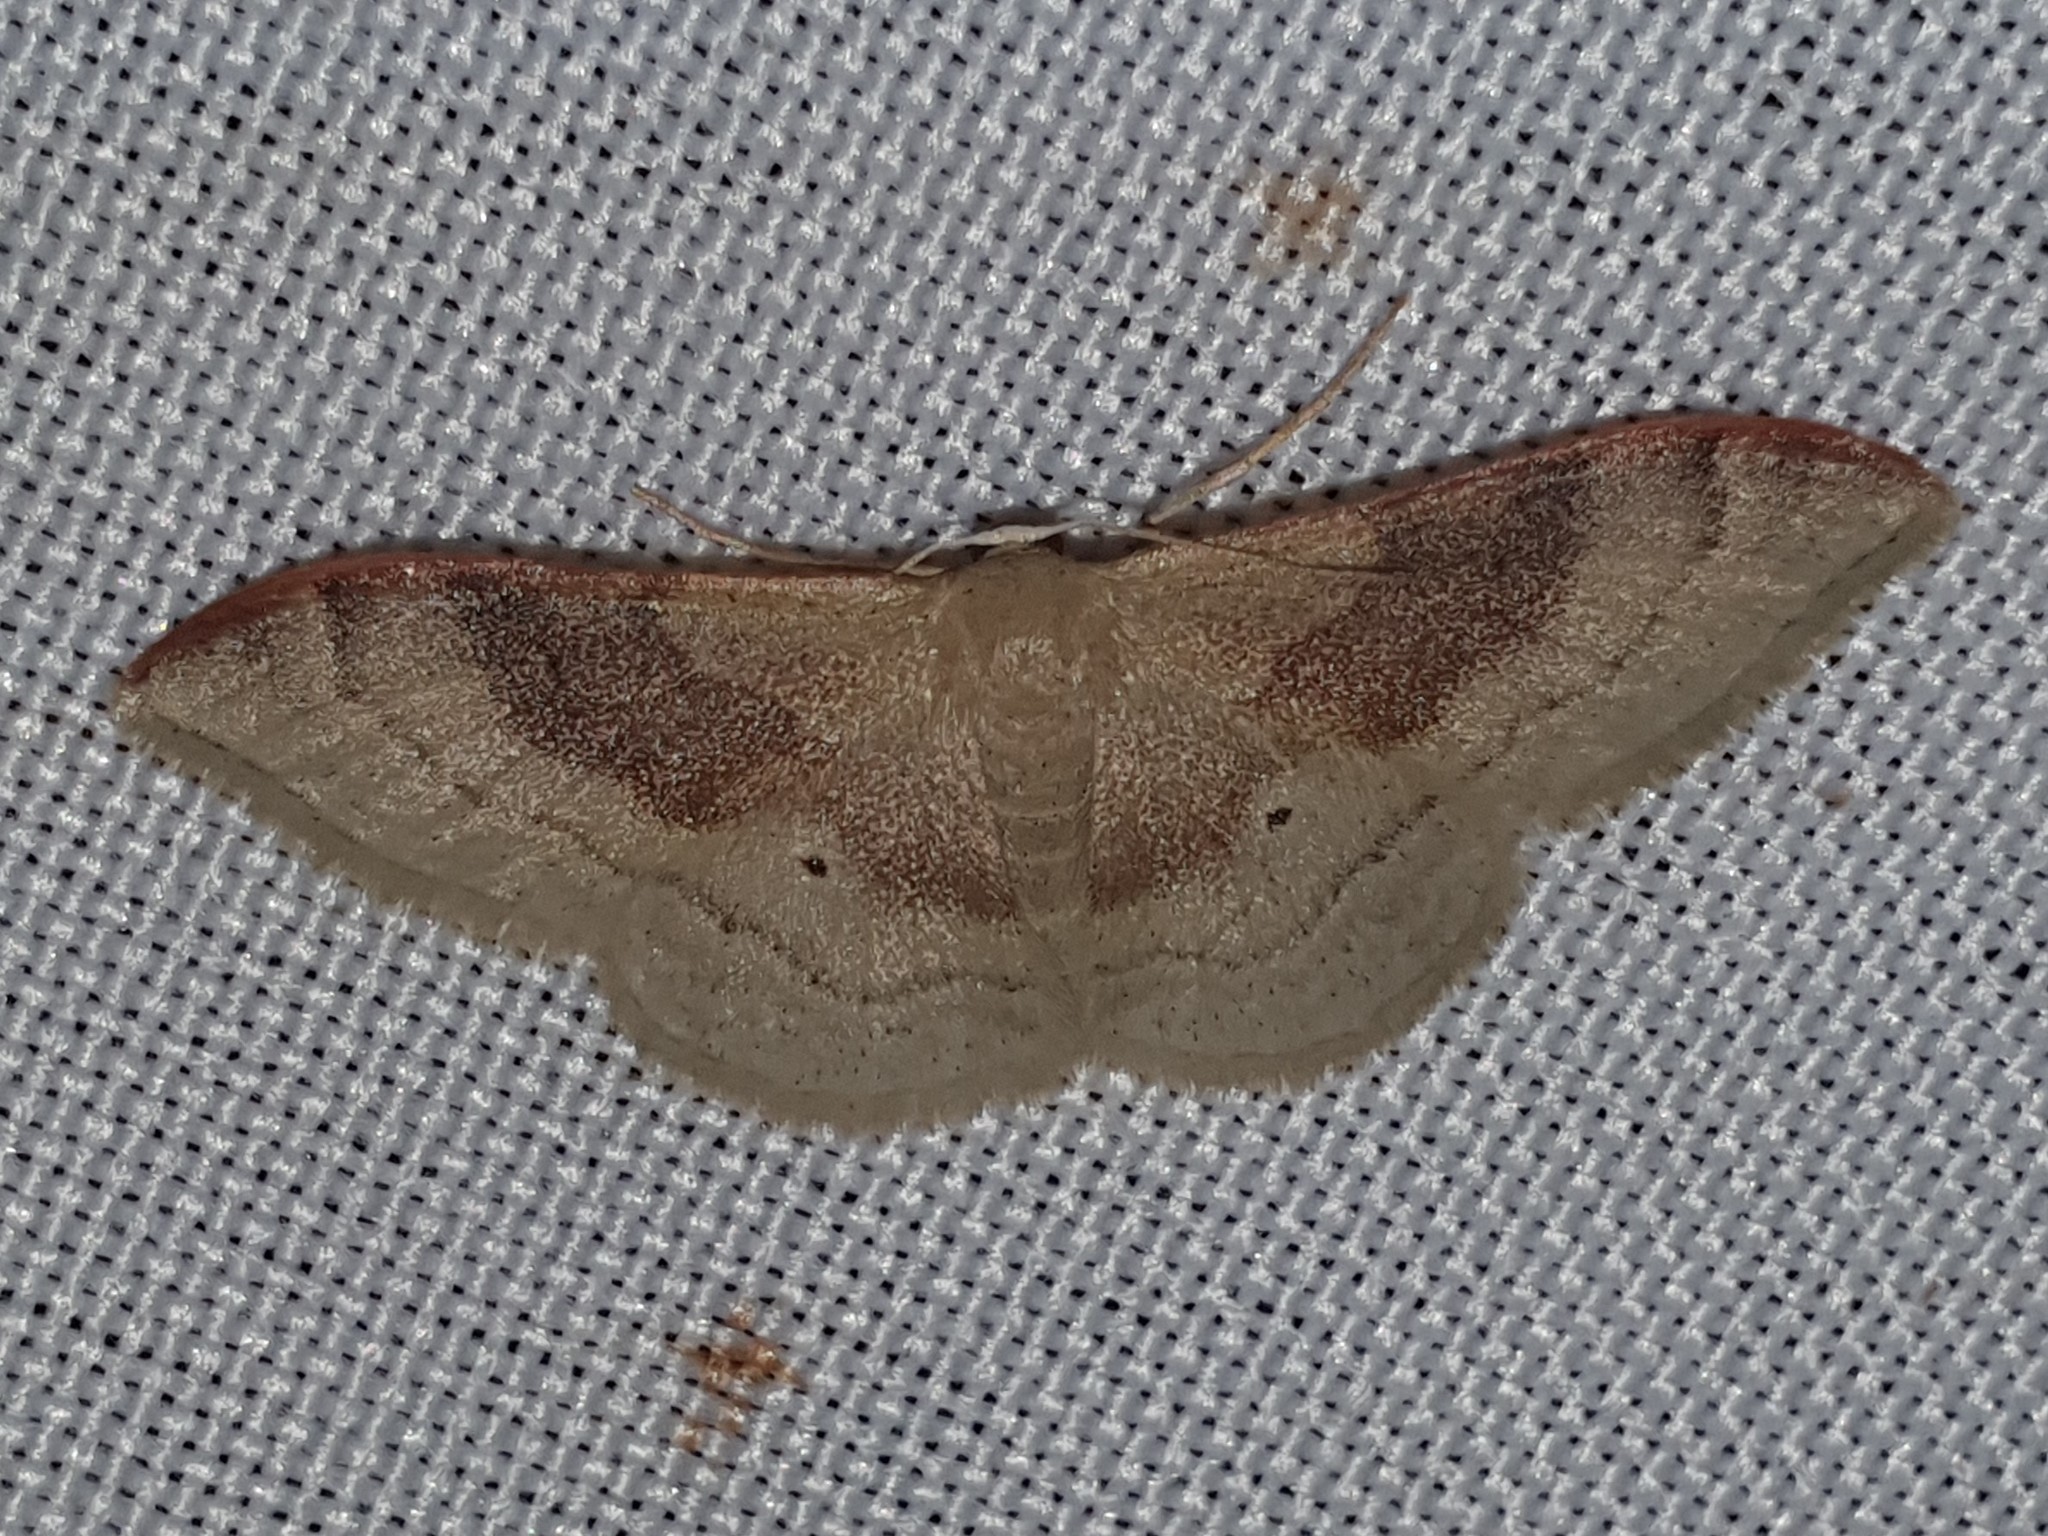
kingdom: Animalia
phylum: Arthropoda
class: Insecta
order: Lepidoptera
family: Geometridae
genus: Idaea
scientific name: Idaea degeneraria
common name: Portland ribbon wave
